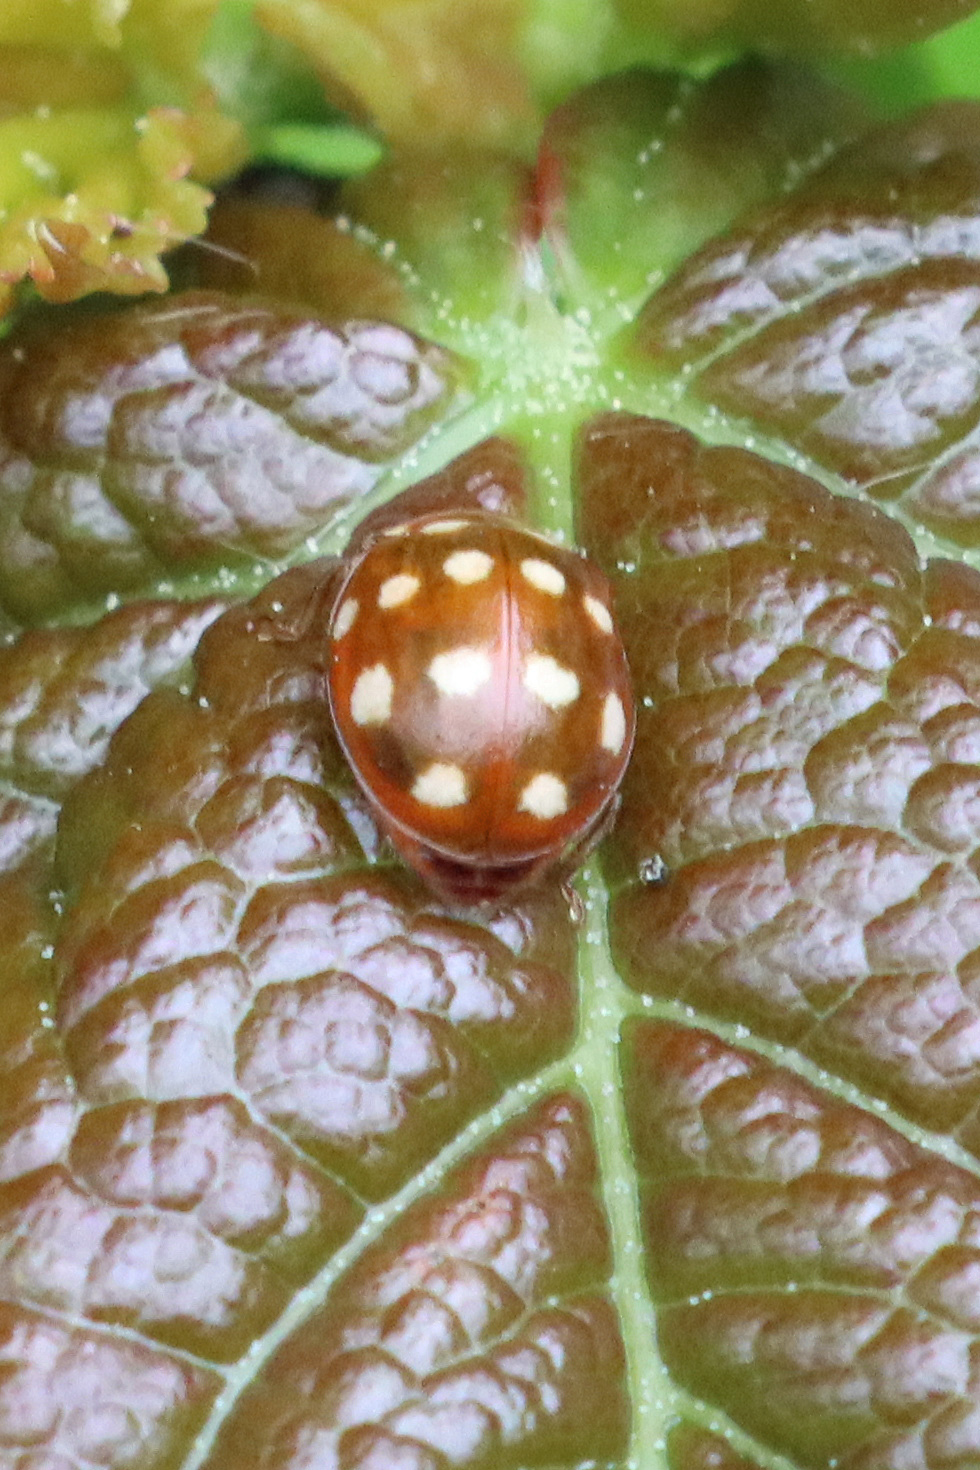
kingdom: Animalia
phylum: Arthropoda
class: Insecta
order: Coleoptera
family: Coccinellidae
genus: Calvia
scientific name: Calvia quatuordecimguttata
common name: Cream-spot ladybird
